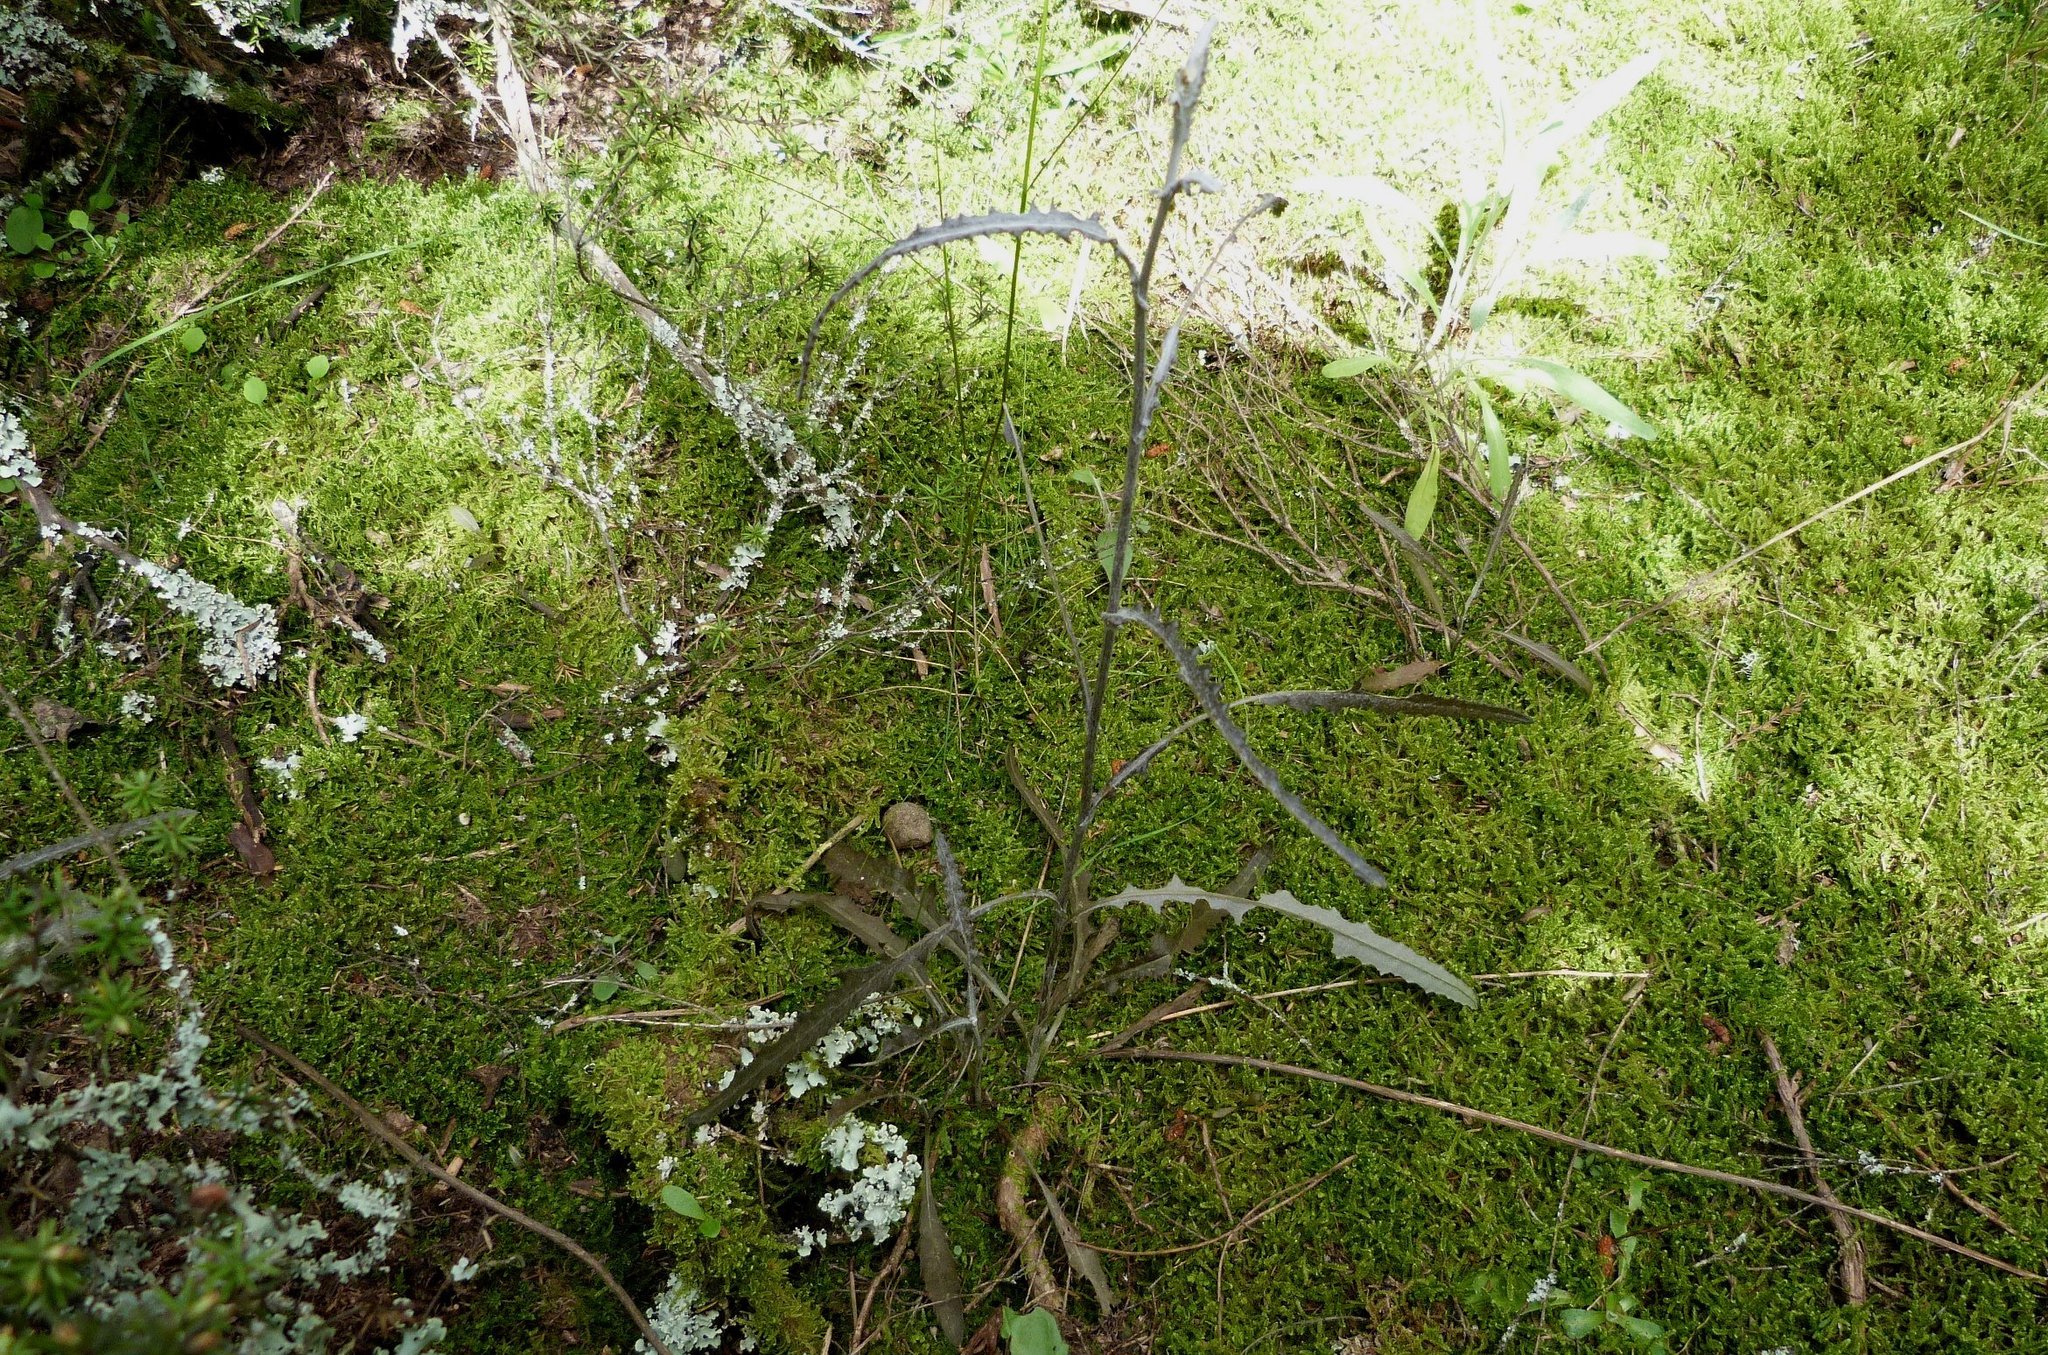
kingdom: Plantae
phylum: Tracheophyta
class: Magnoliopsida
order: Asterales
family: Asteraceae
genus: Senecio
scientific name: Senecio dunedinensis
